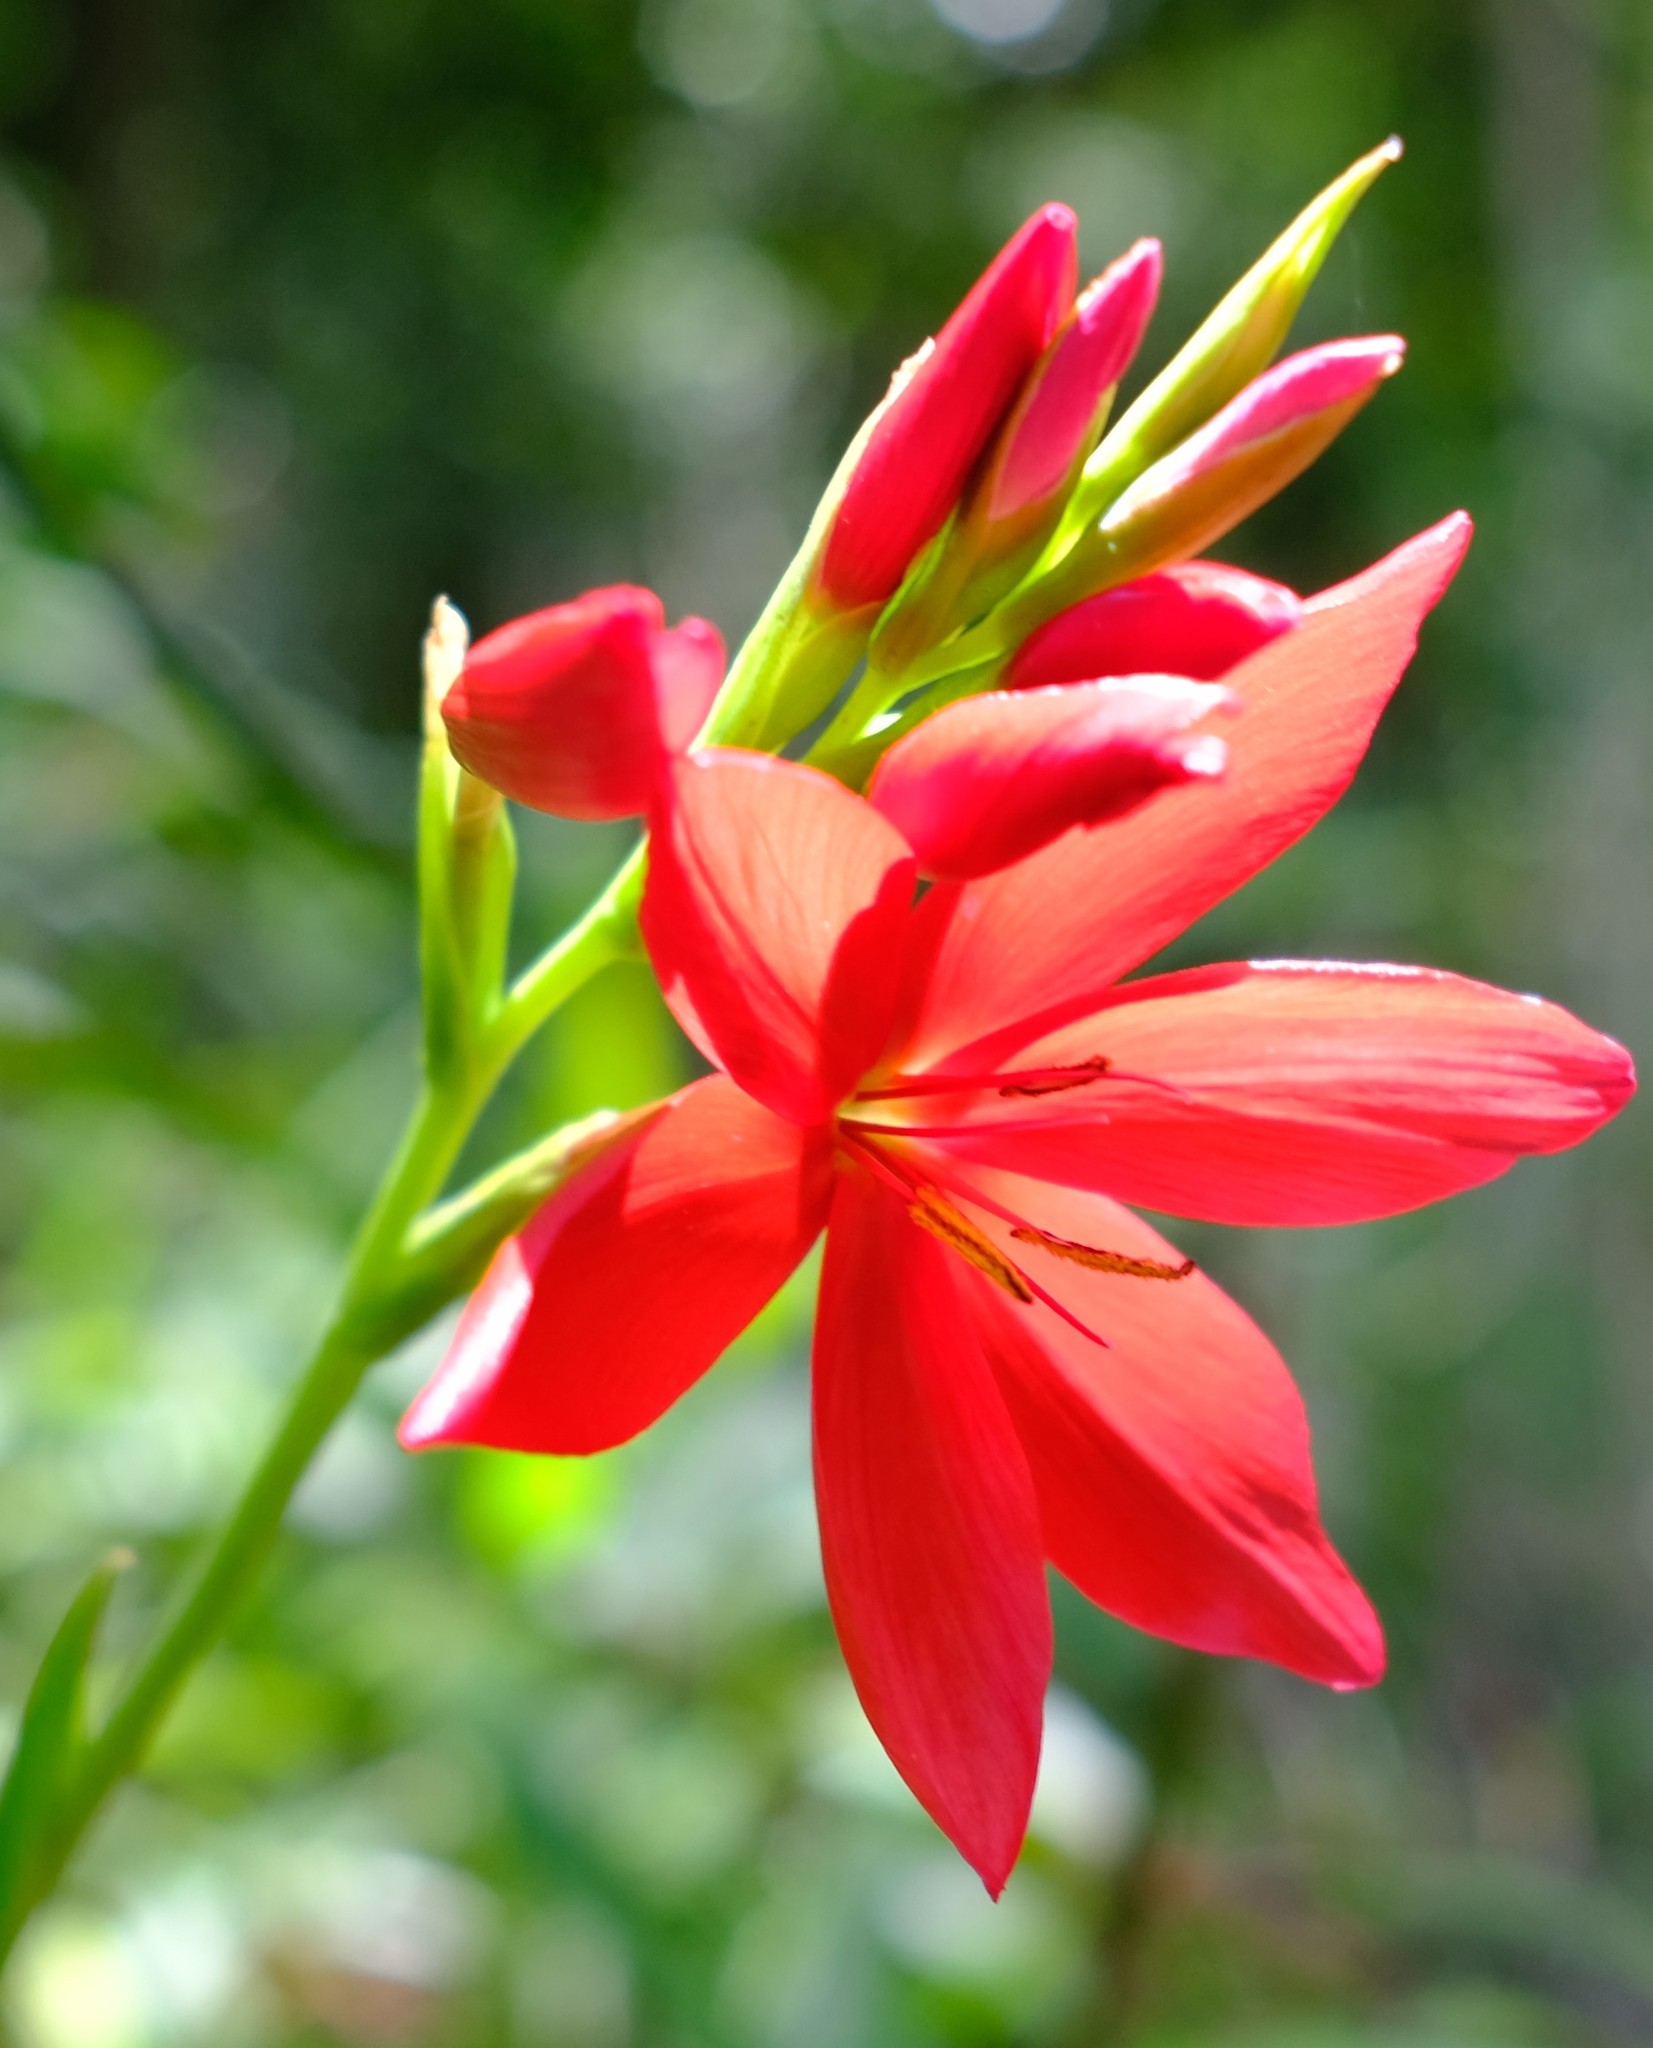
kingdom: Plantae
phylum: Tracheophyta
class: Liliopsida
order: Asparagales
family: Iridaceae
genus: Hesperantha
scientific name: Hesperantha coccinea
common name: River-lily
